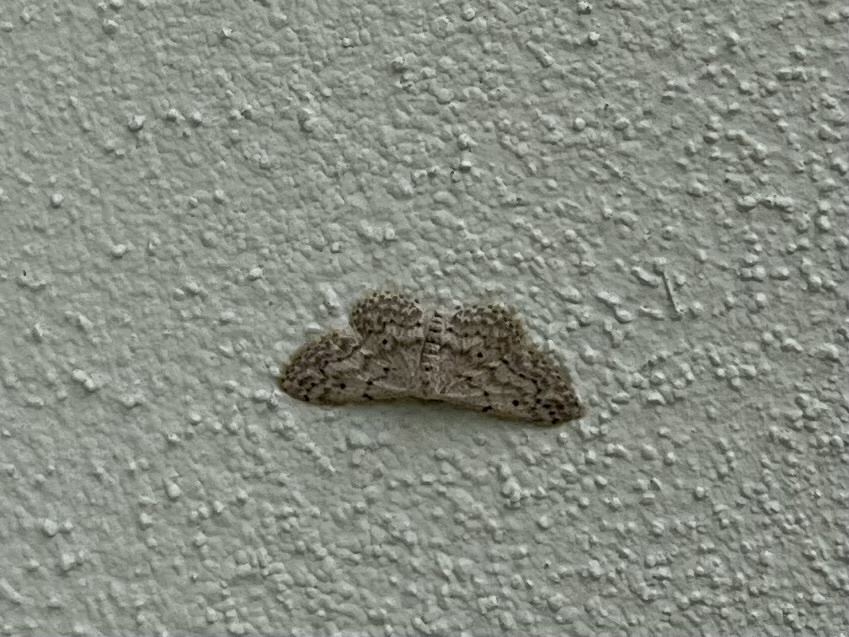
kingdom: Animalia
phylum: Arthropoda
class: Insecta
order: Lepidoptera
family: Geometridae
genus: Idaea
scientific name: Idaea seriata
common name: Small dusty wave
